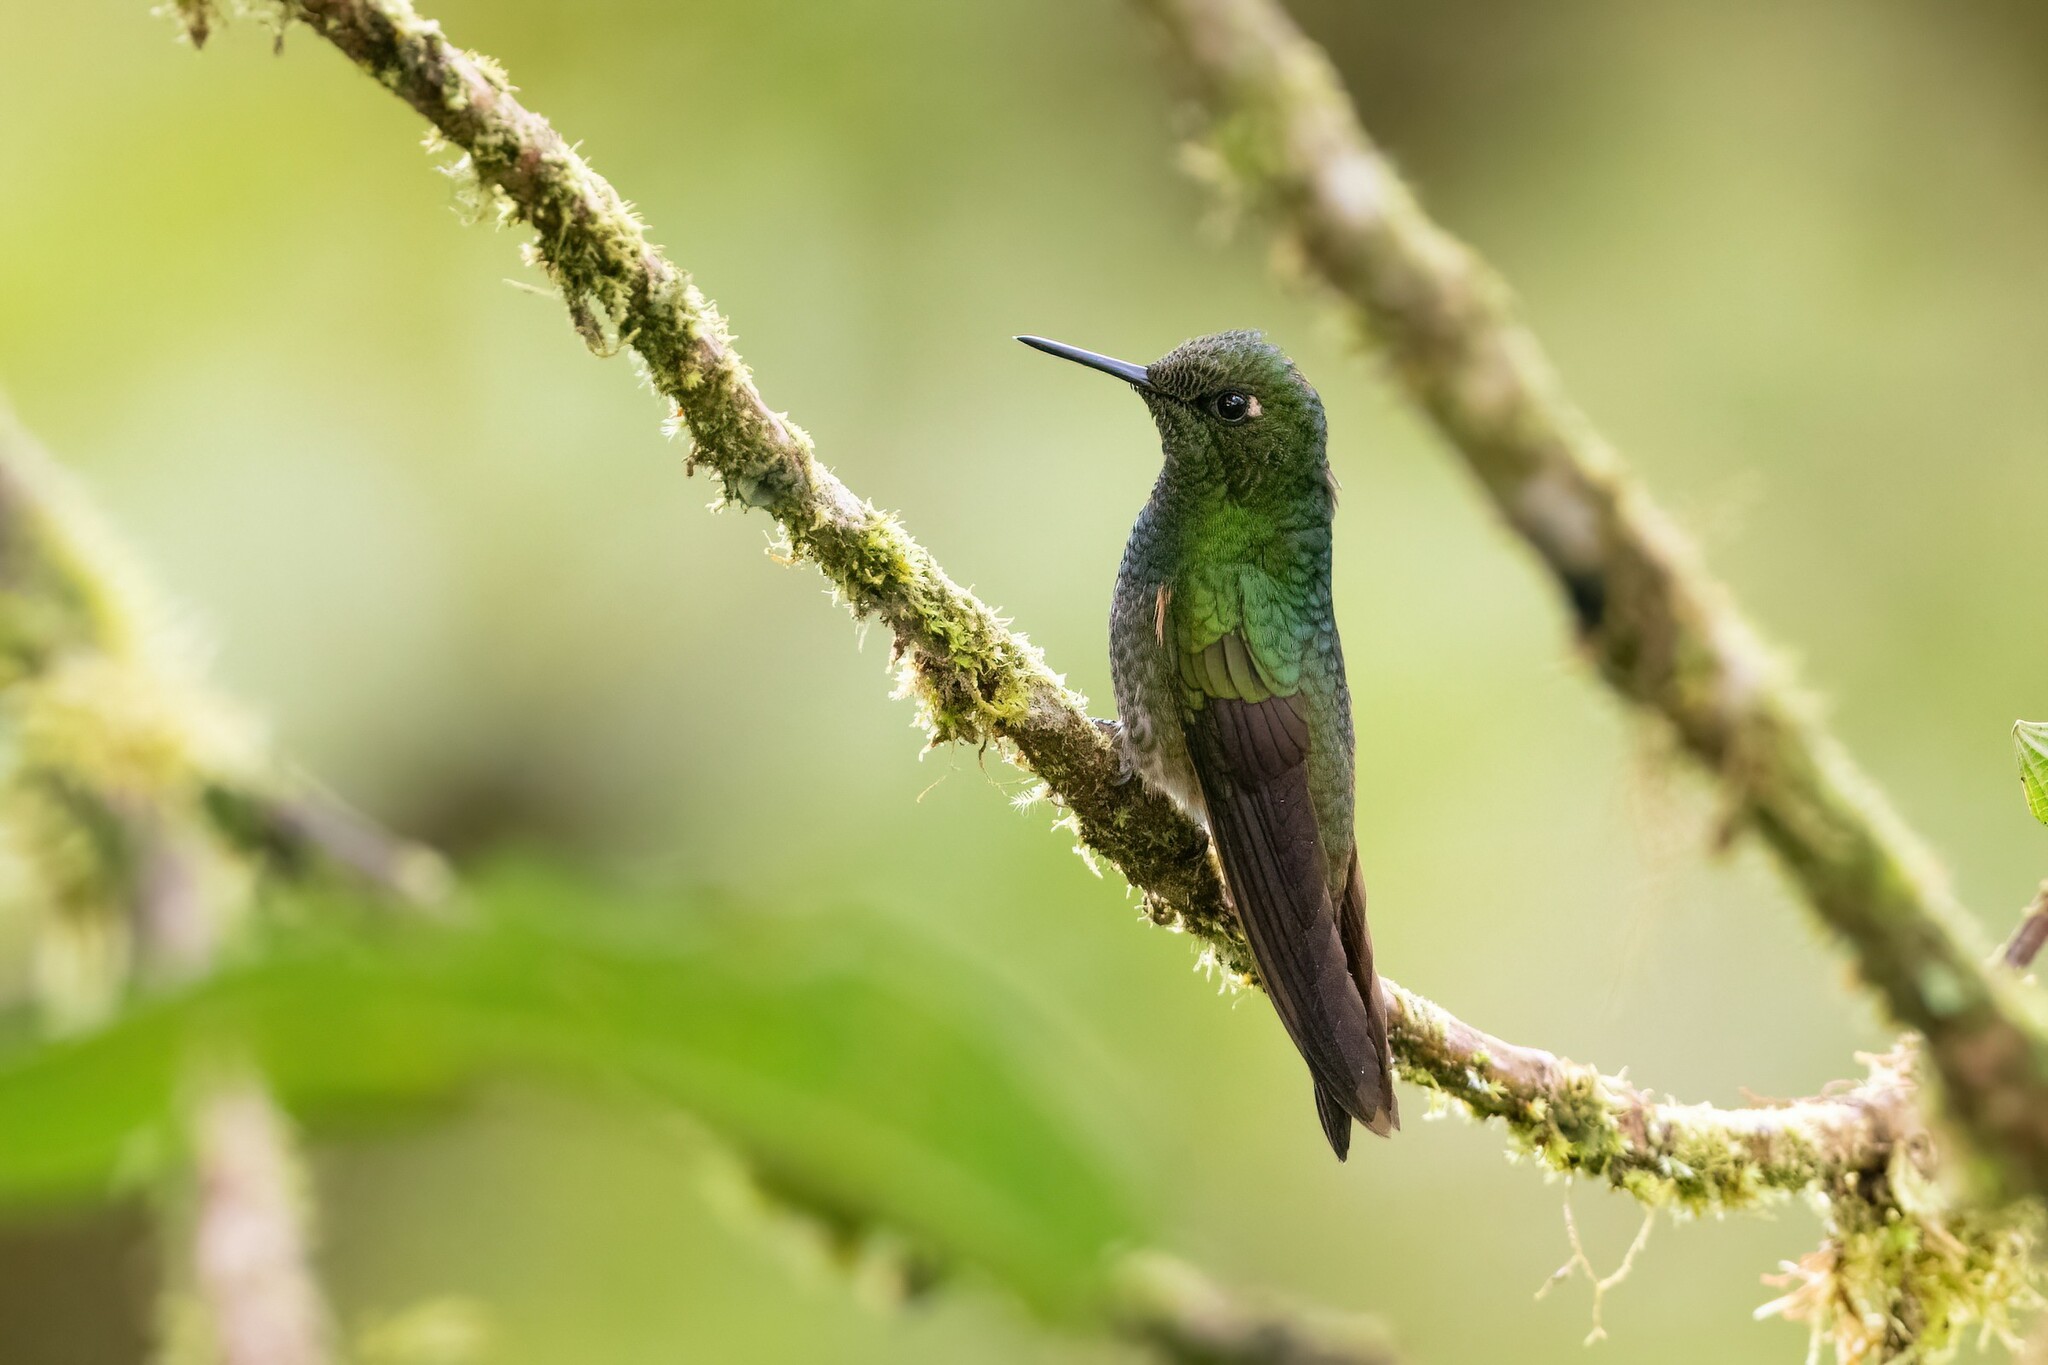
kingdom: Animalia
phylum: Chordata
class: Aves
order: Apodiformes
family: Trochilidae
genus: Boissonneaua
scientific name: Boissonneaua flavescens
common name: Buff-tailed coronet
